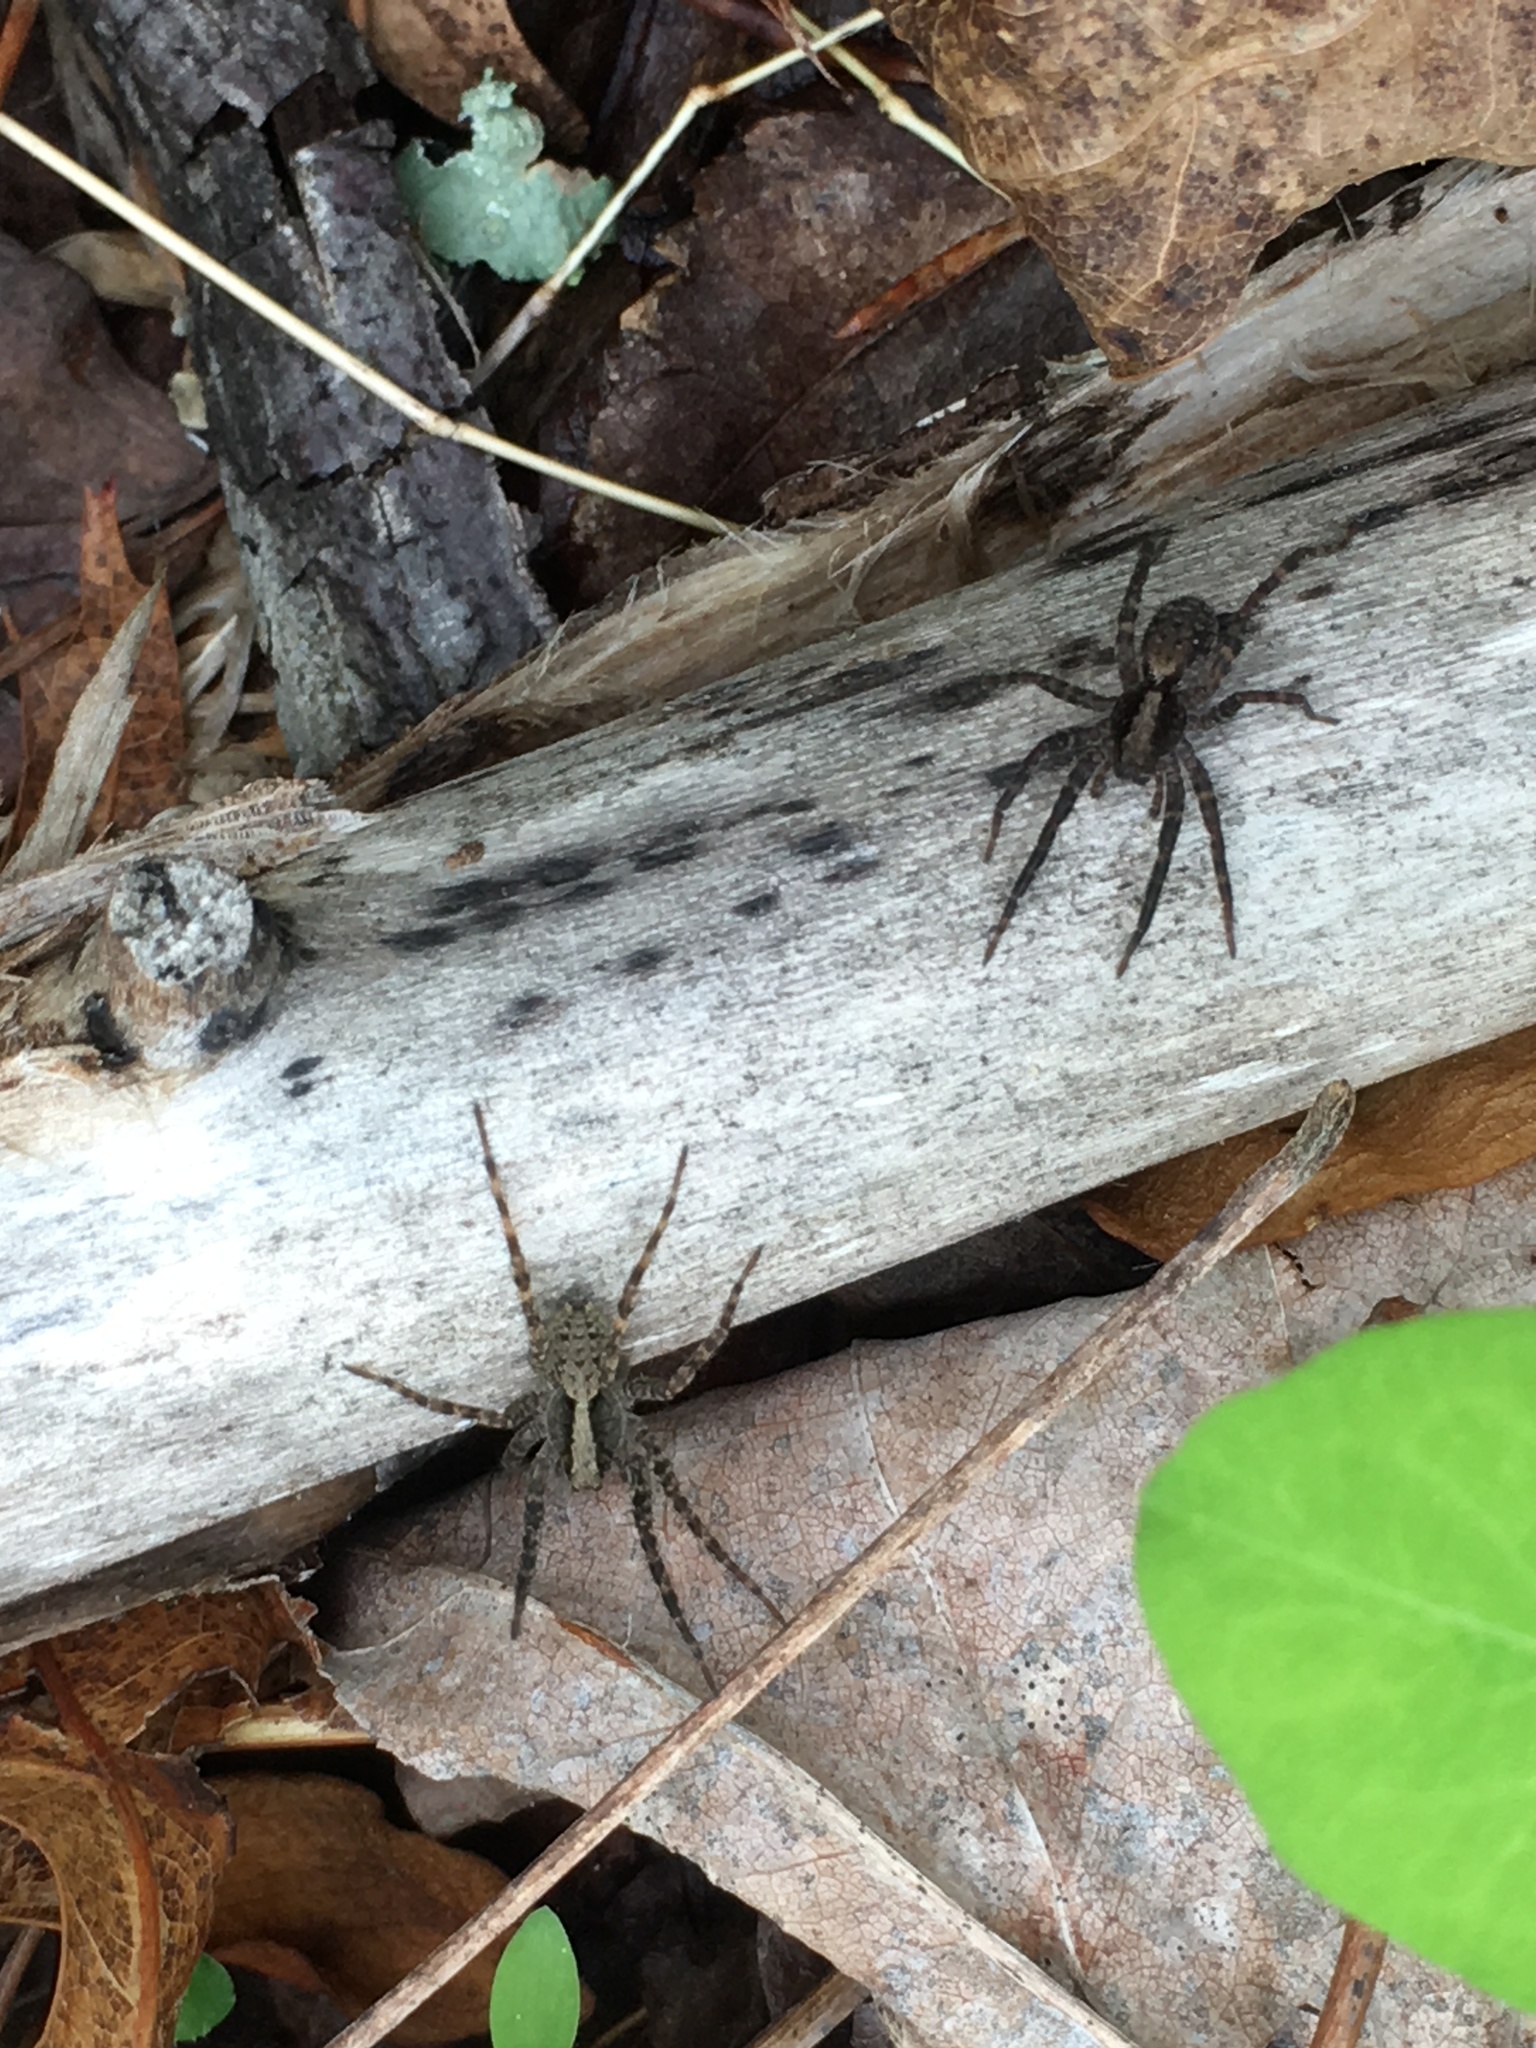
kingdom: Animalia
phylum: Arthropoda
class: Arachnida
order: Araneae
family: Lycosidae
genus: Schizocosa
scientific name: Schizocosa ocreata
